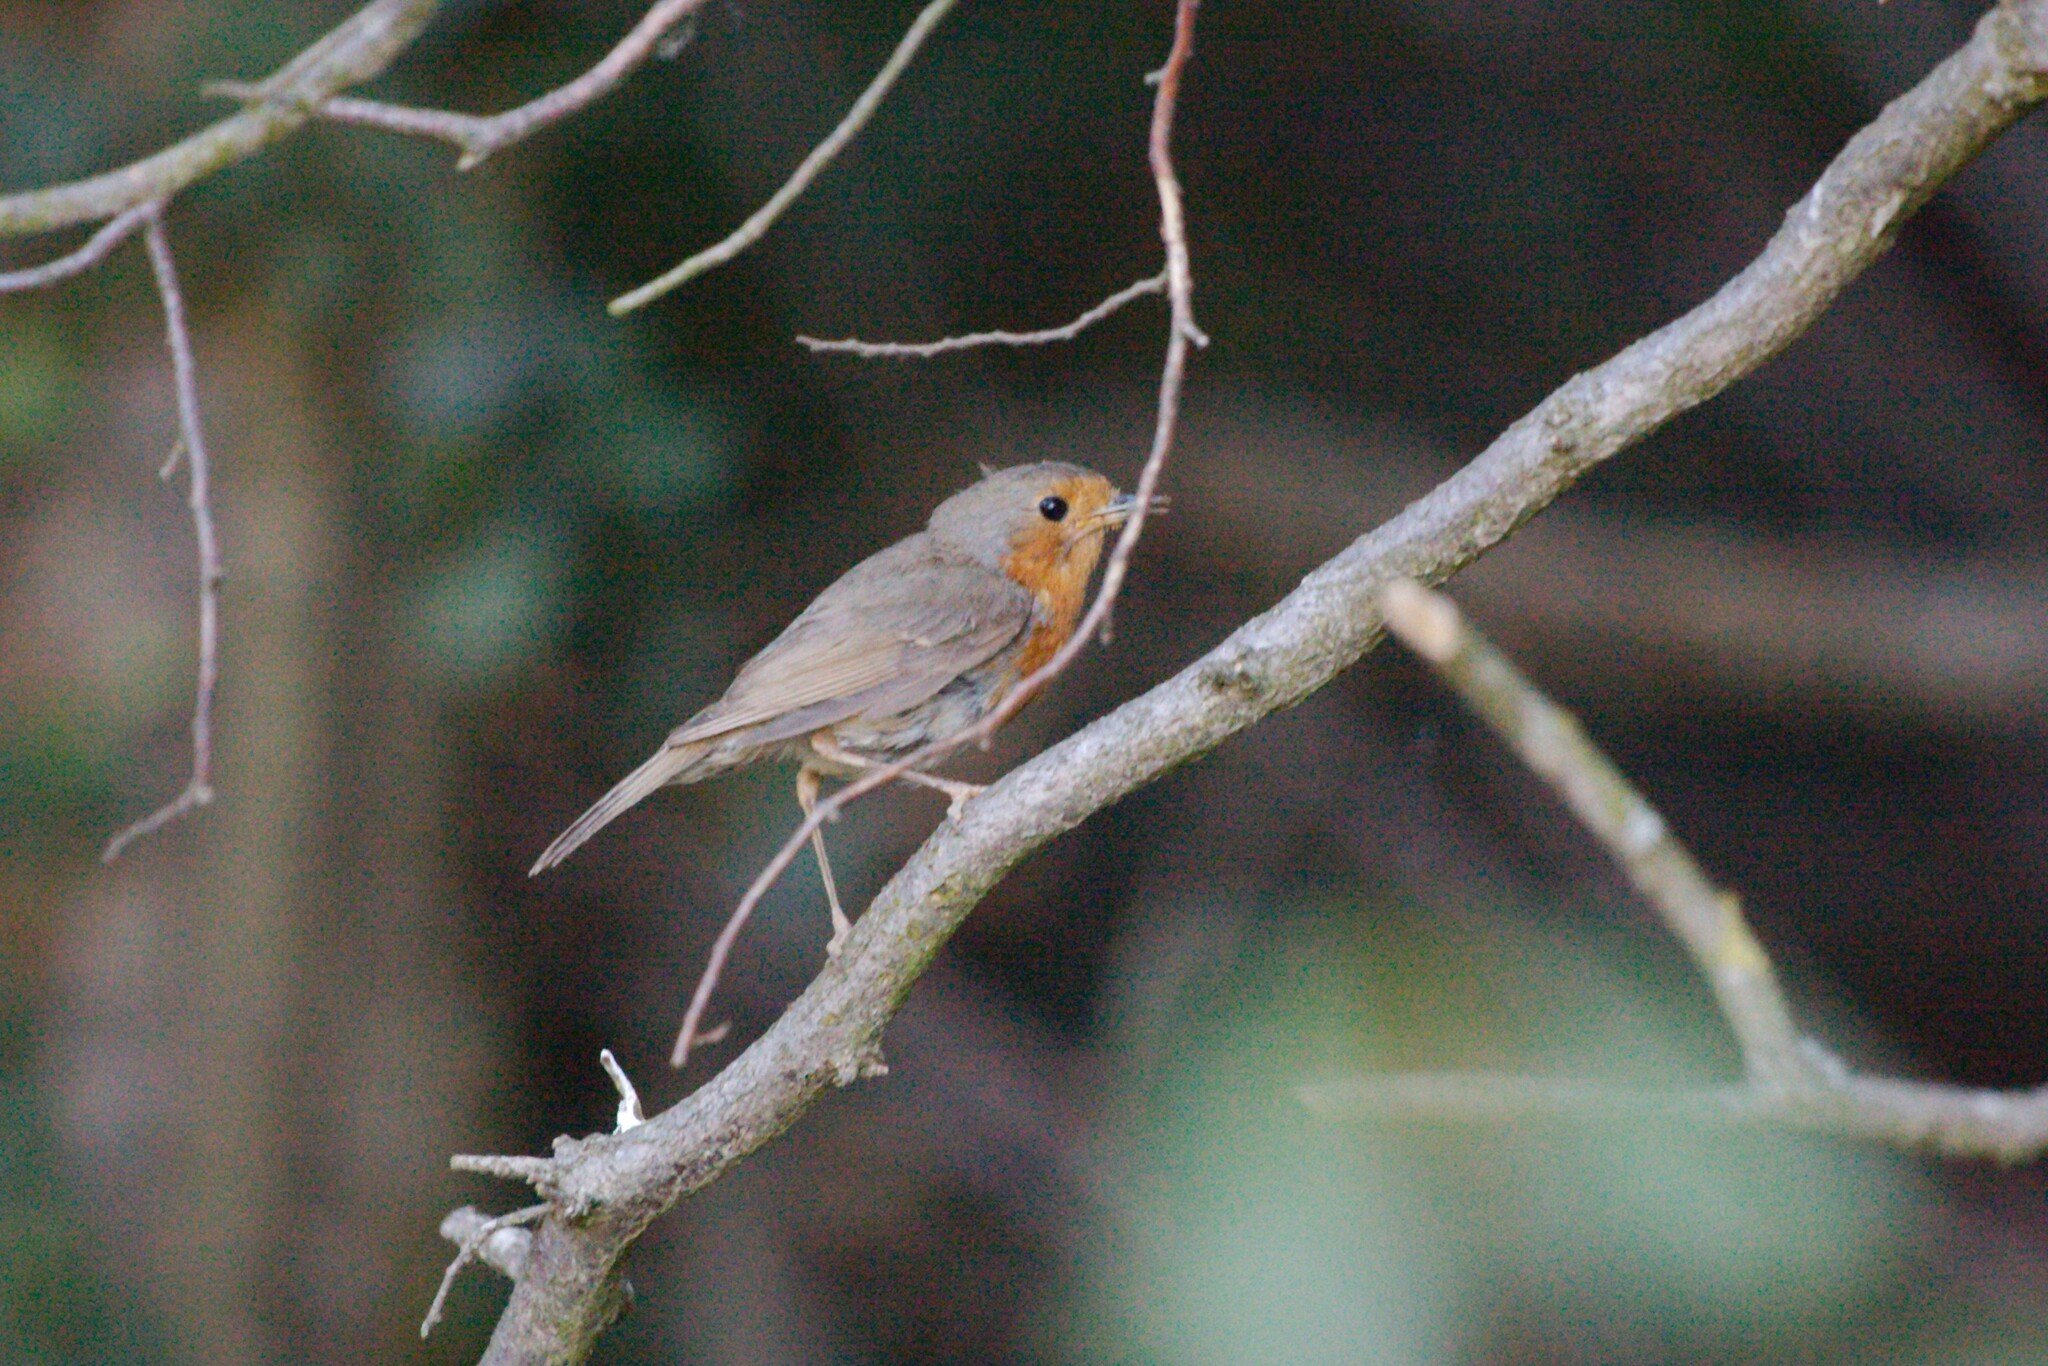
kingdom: Animalia
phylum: Chordata
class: Aves
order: Passeriformes
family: Muscicapidae
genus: Erithacus
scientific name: Erithacus rubecula
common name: European robin
